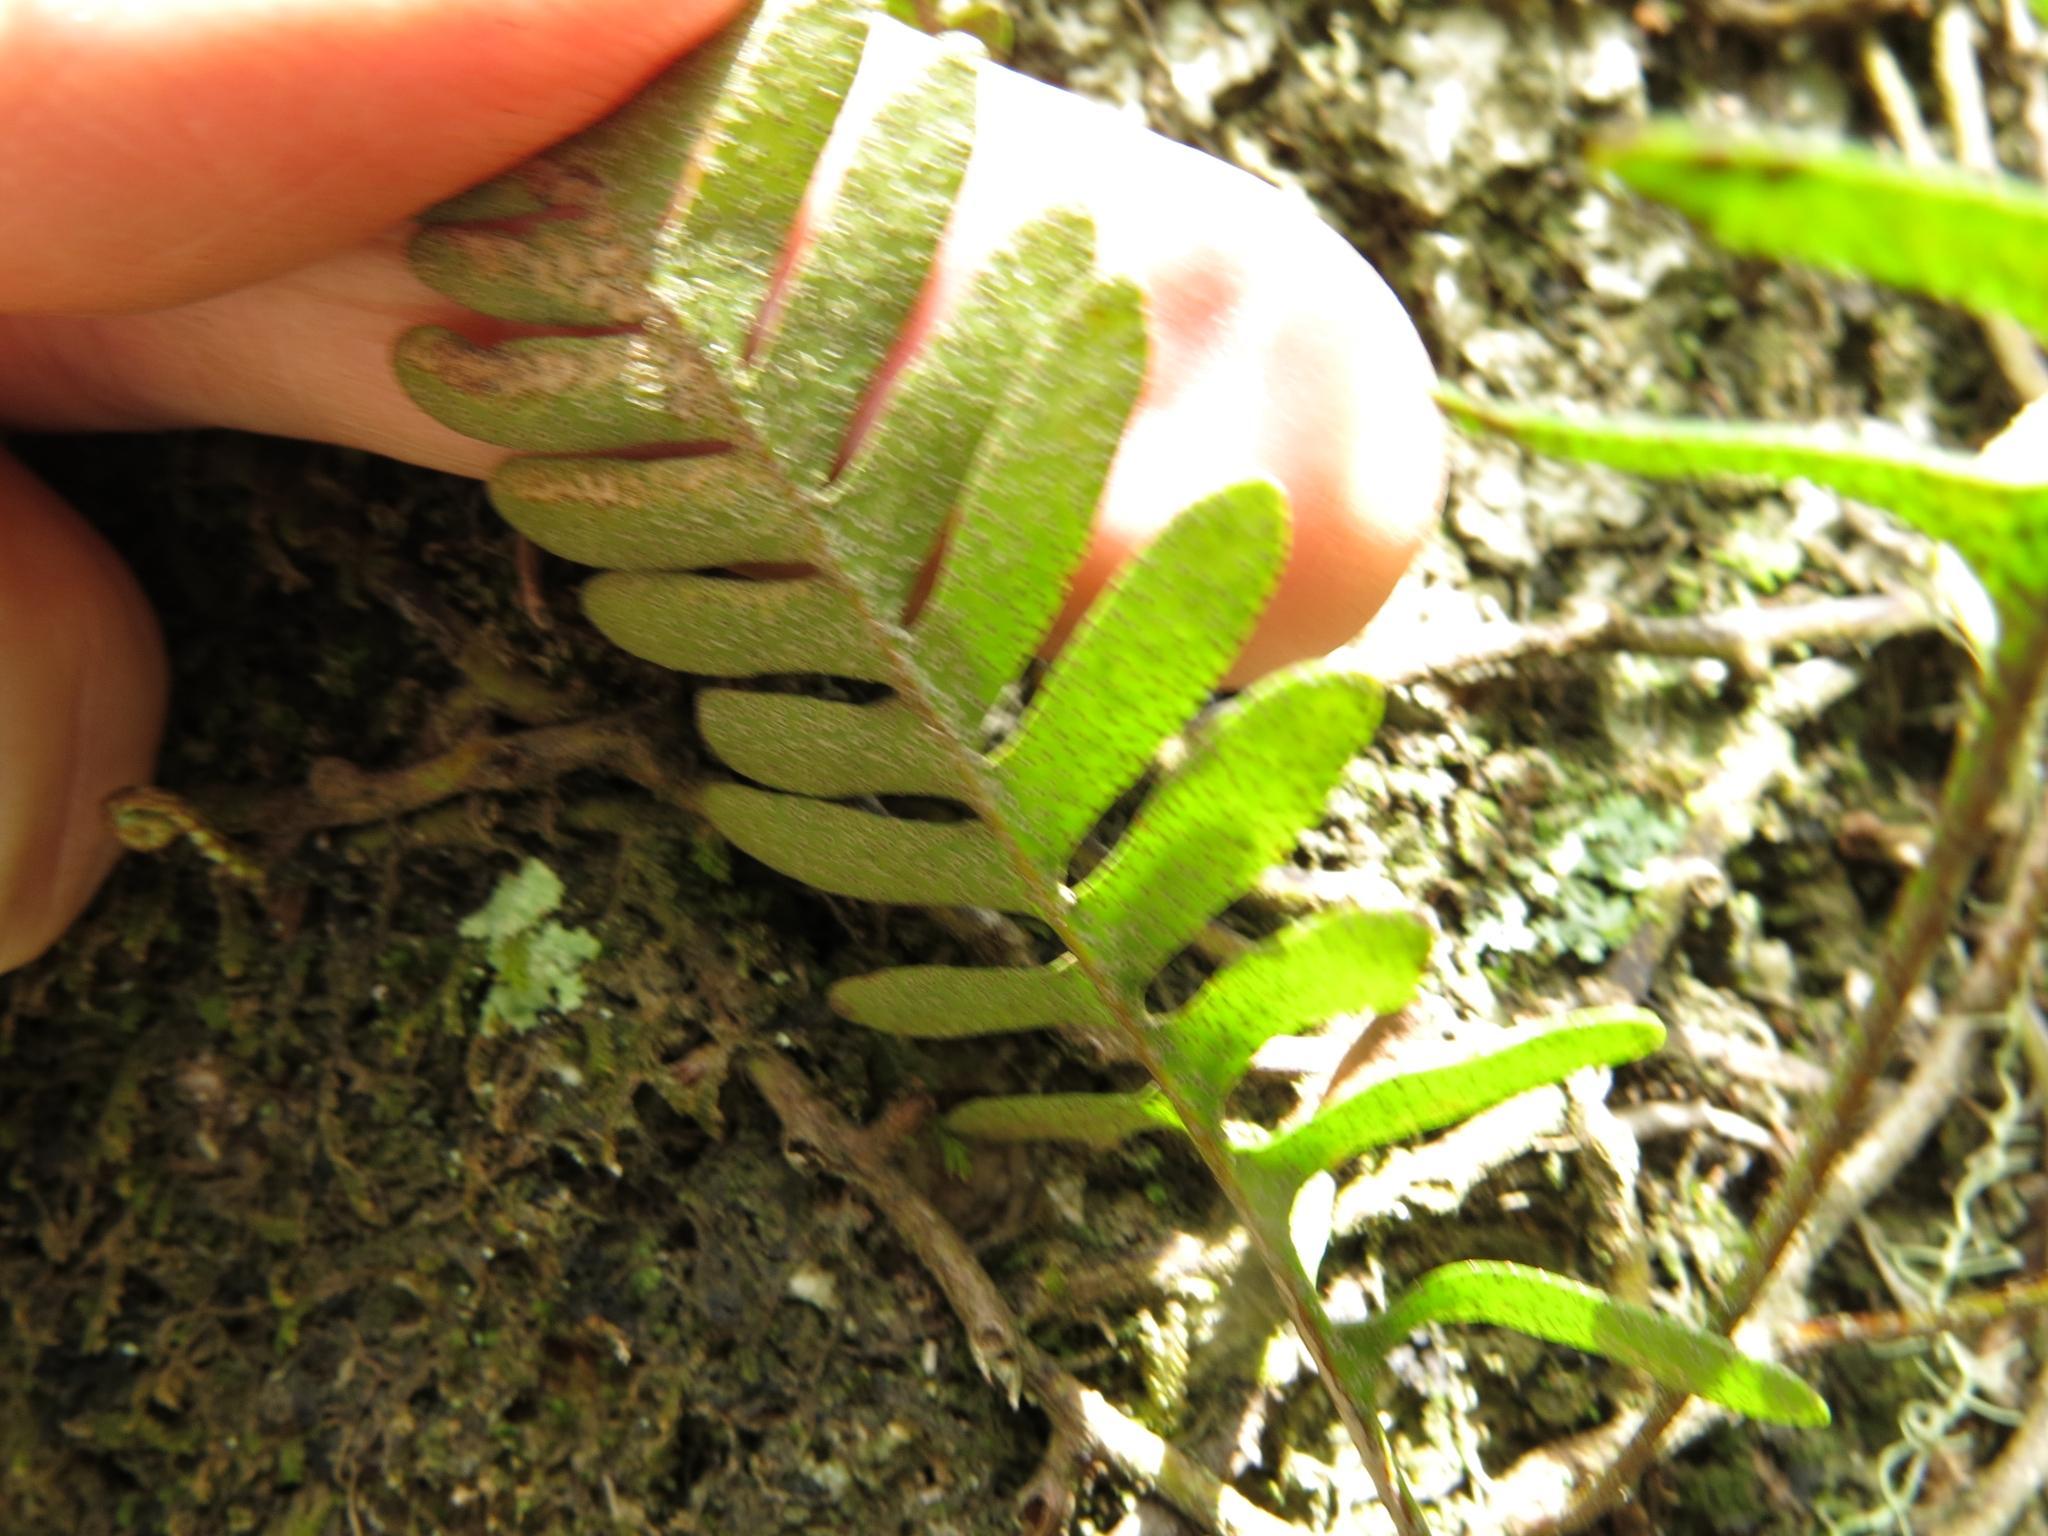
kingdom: Plantae
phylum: Tracheophyta
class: Polypodiopsida
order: Polypodiales
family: Polypodiaceae
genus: Pleopeltis
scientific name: Pleopeltis ecklonii
